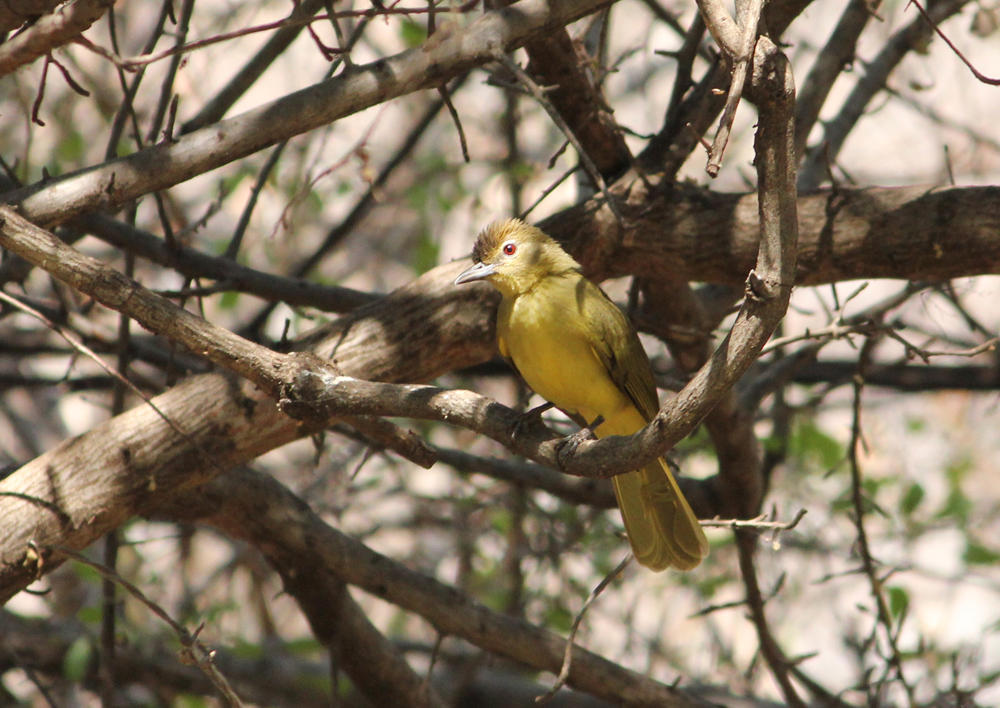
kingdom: Animalia
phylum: Chordata
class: Aves
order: Passeriformes
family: Pycnonotidae
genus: Chlorocichla
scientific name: Chlorocichla flaviventris
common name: Yellow-bellied greenbul
